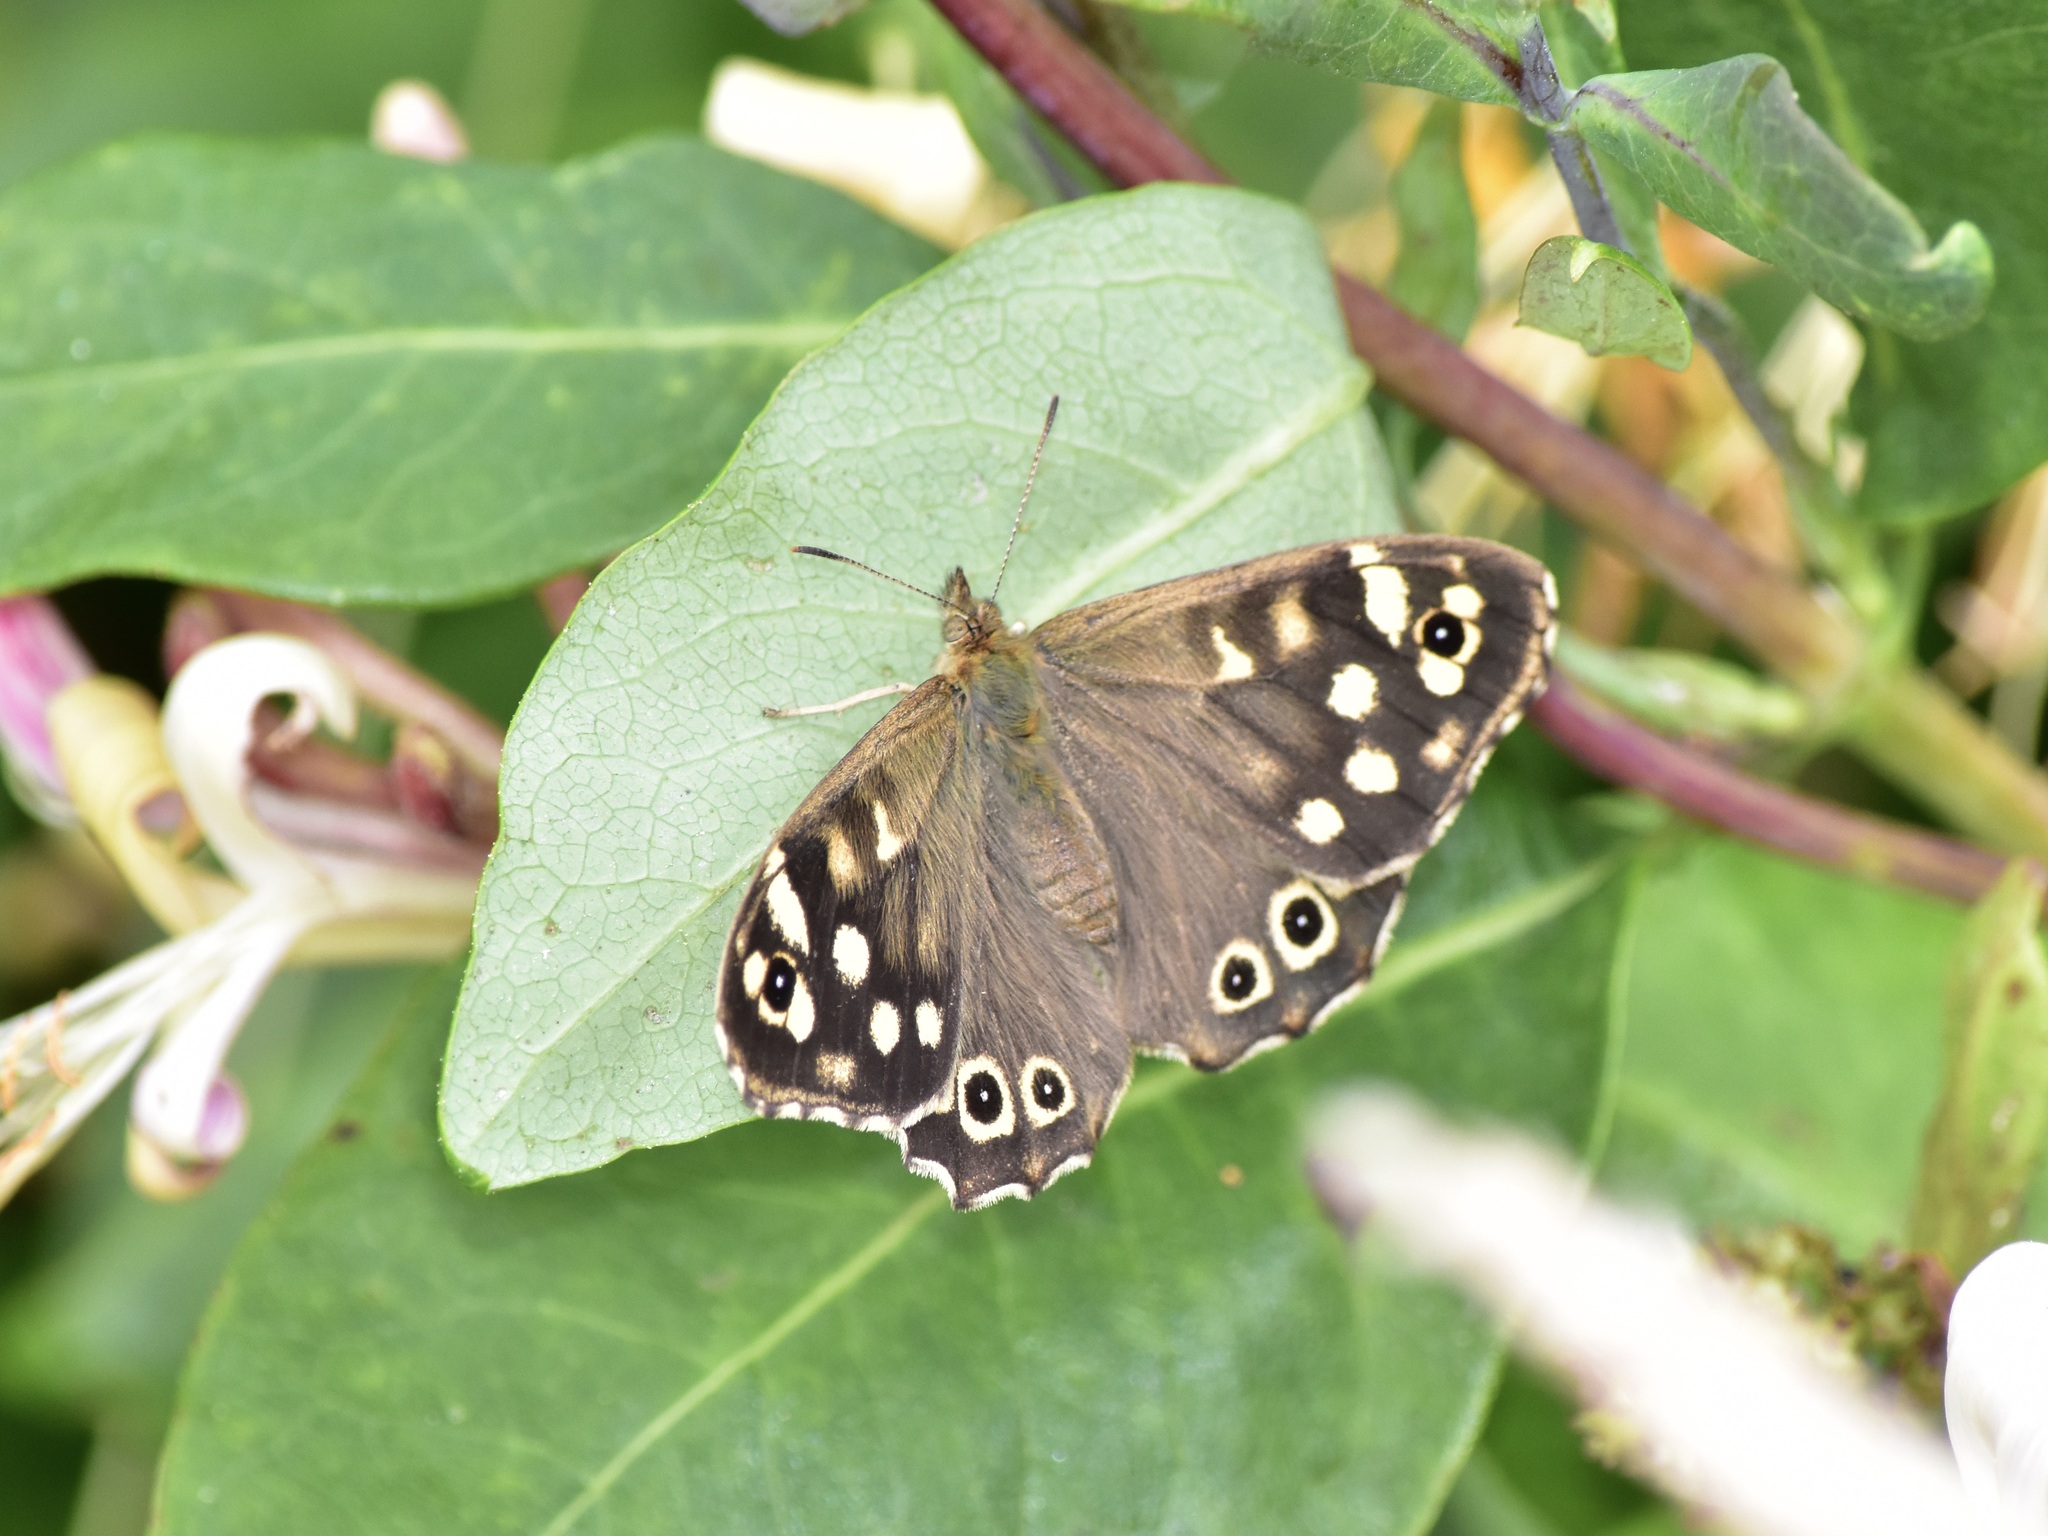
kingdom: Animalia
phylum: Arthropoda
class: Insecta
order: Lepidoptera
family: Nymphalidae
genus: Pararge
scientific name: Pararge aegeria
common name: Speckled wood
